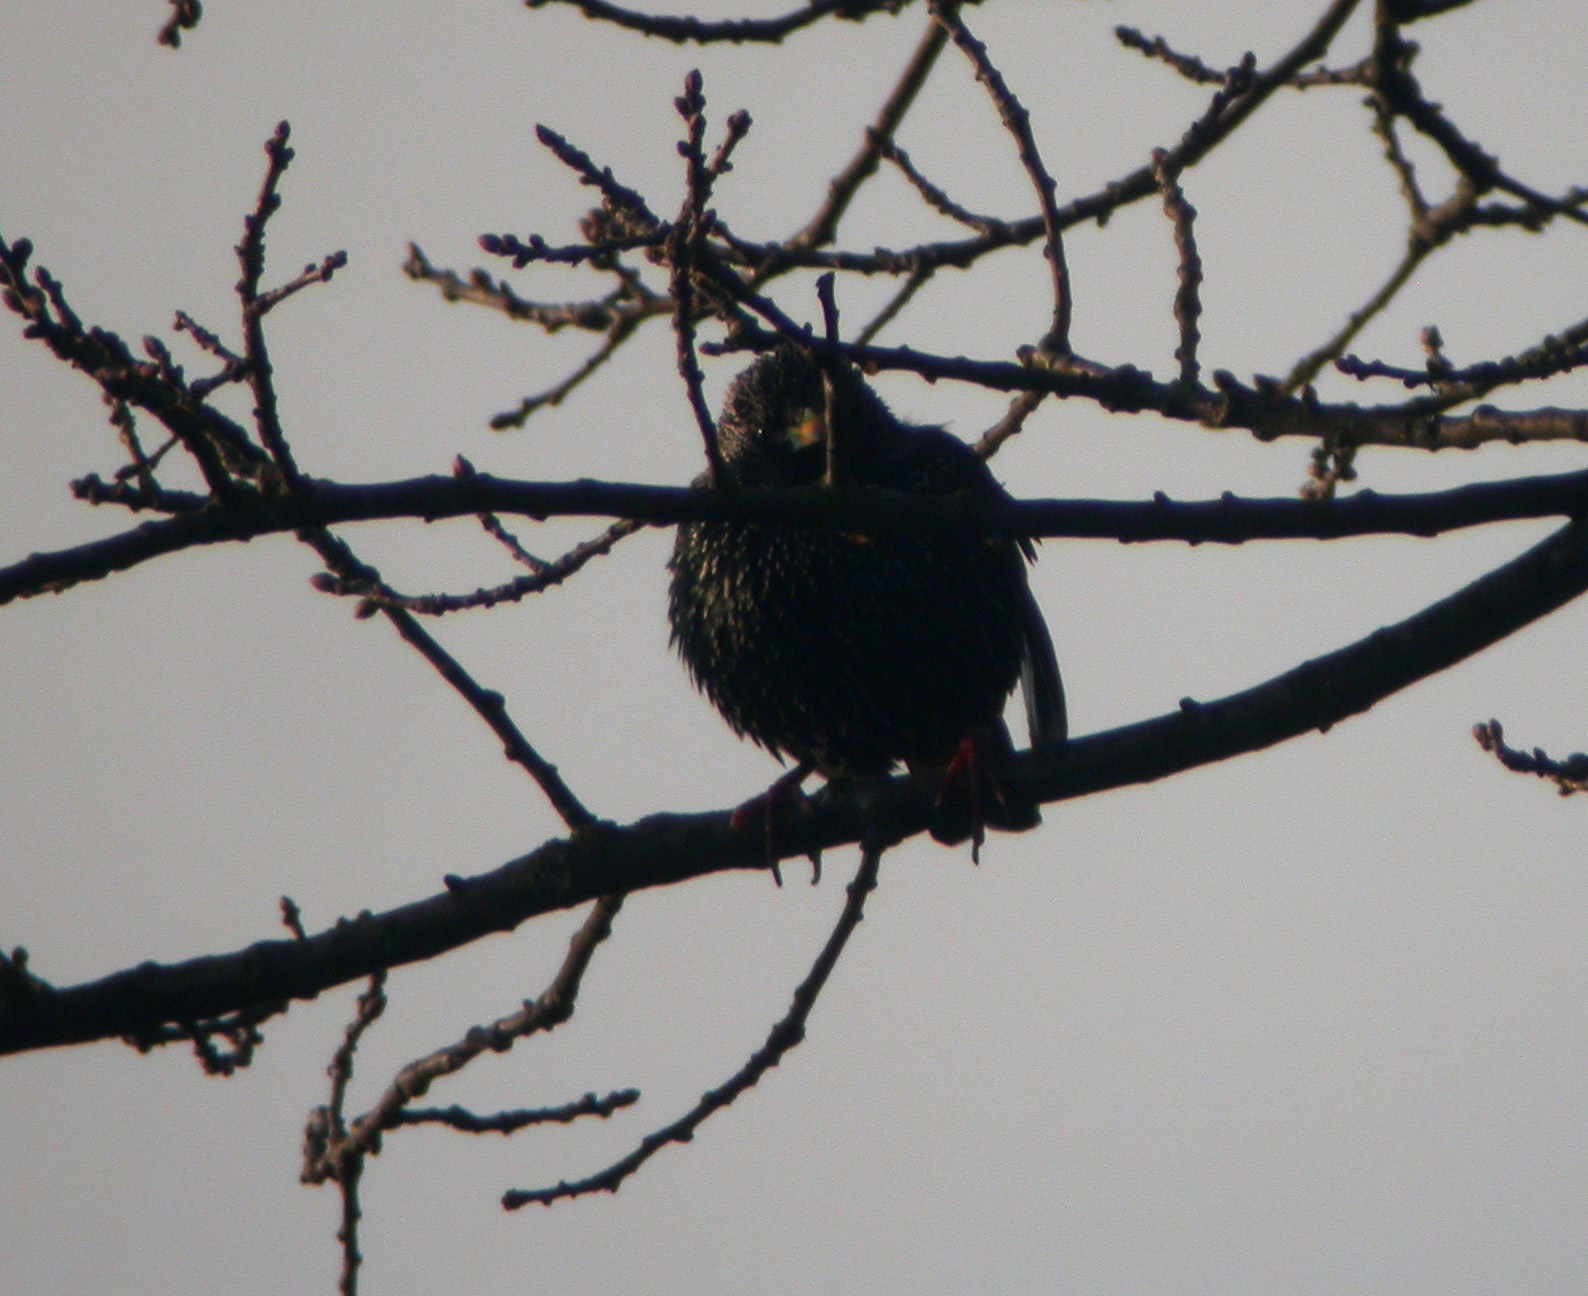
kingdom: Animalia
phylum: Chordata
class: Aves
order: Passeriformes
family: Sturnidae
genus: Sturnus
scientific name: Sturnus vulgaris
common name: Common starling
